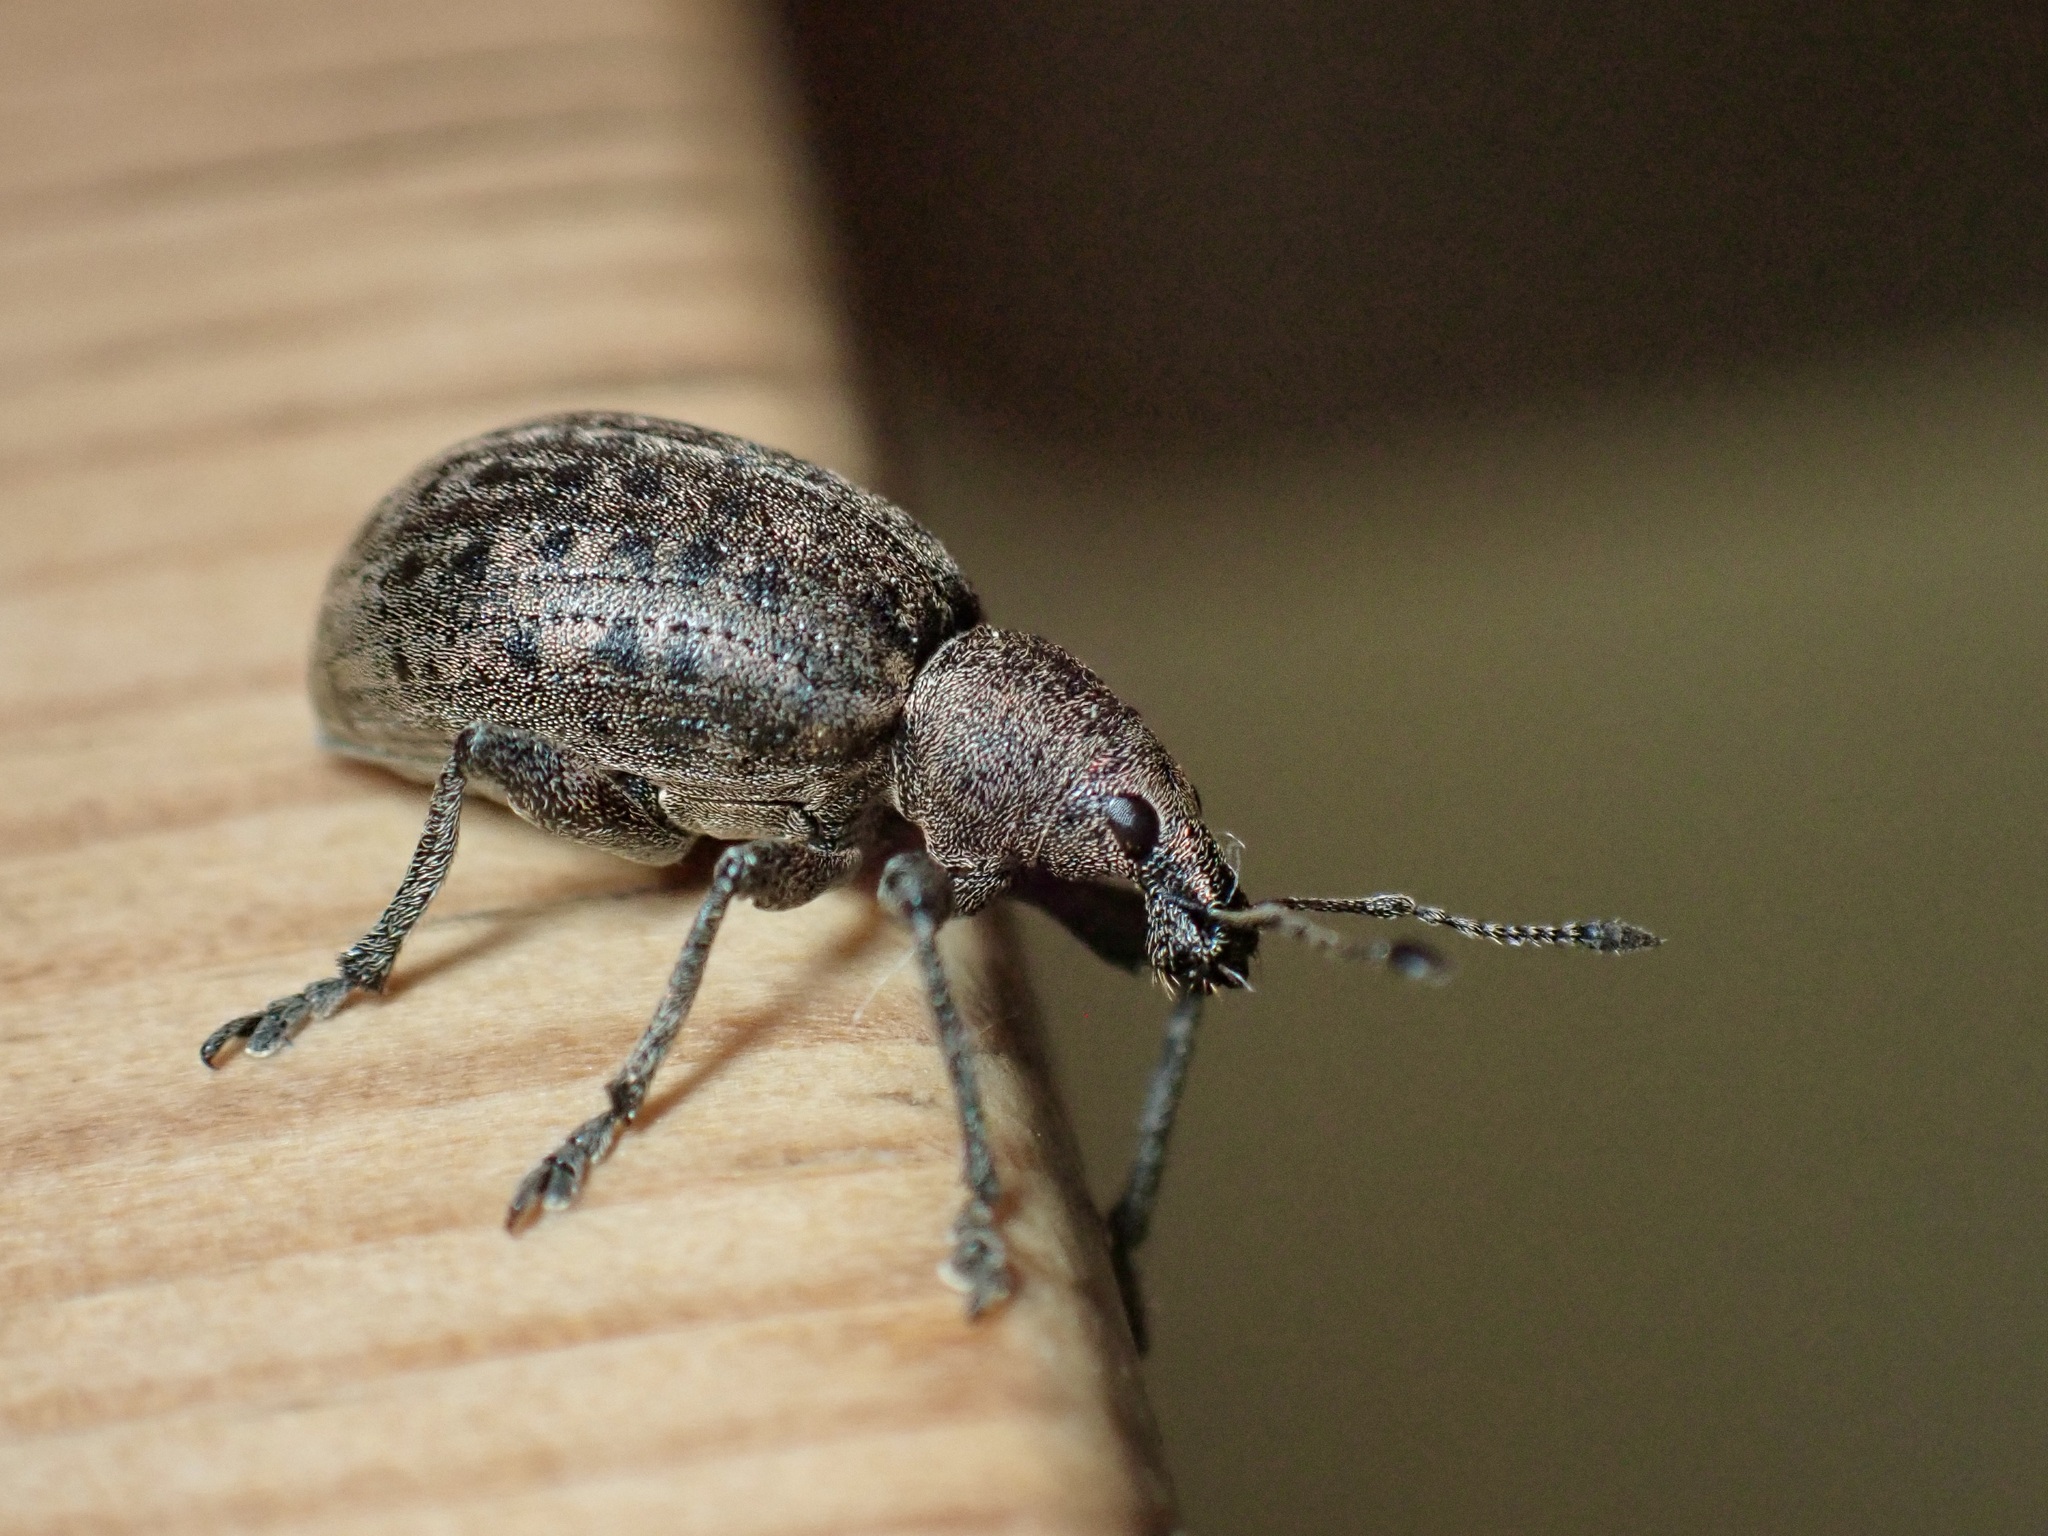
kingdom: Animalia
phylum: Arthropoda
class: Insecta
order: Coleoptera
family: Curculionidae
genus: Liophloeus
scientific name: Liophloeus tessulatus
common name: Weevil
